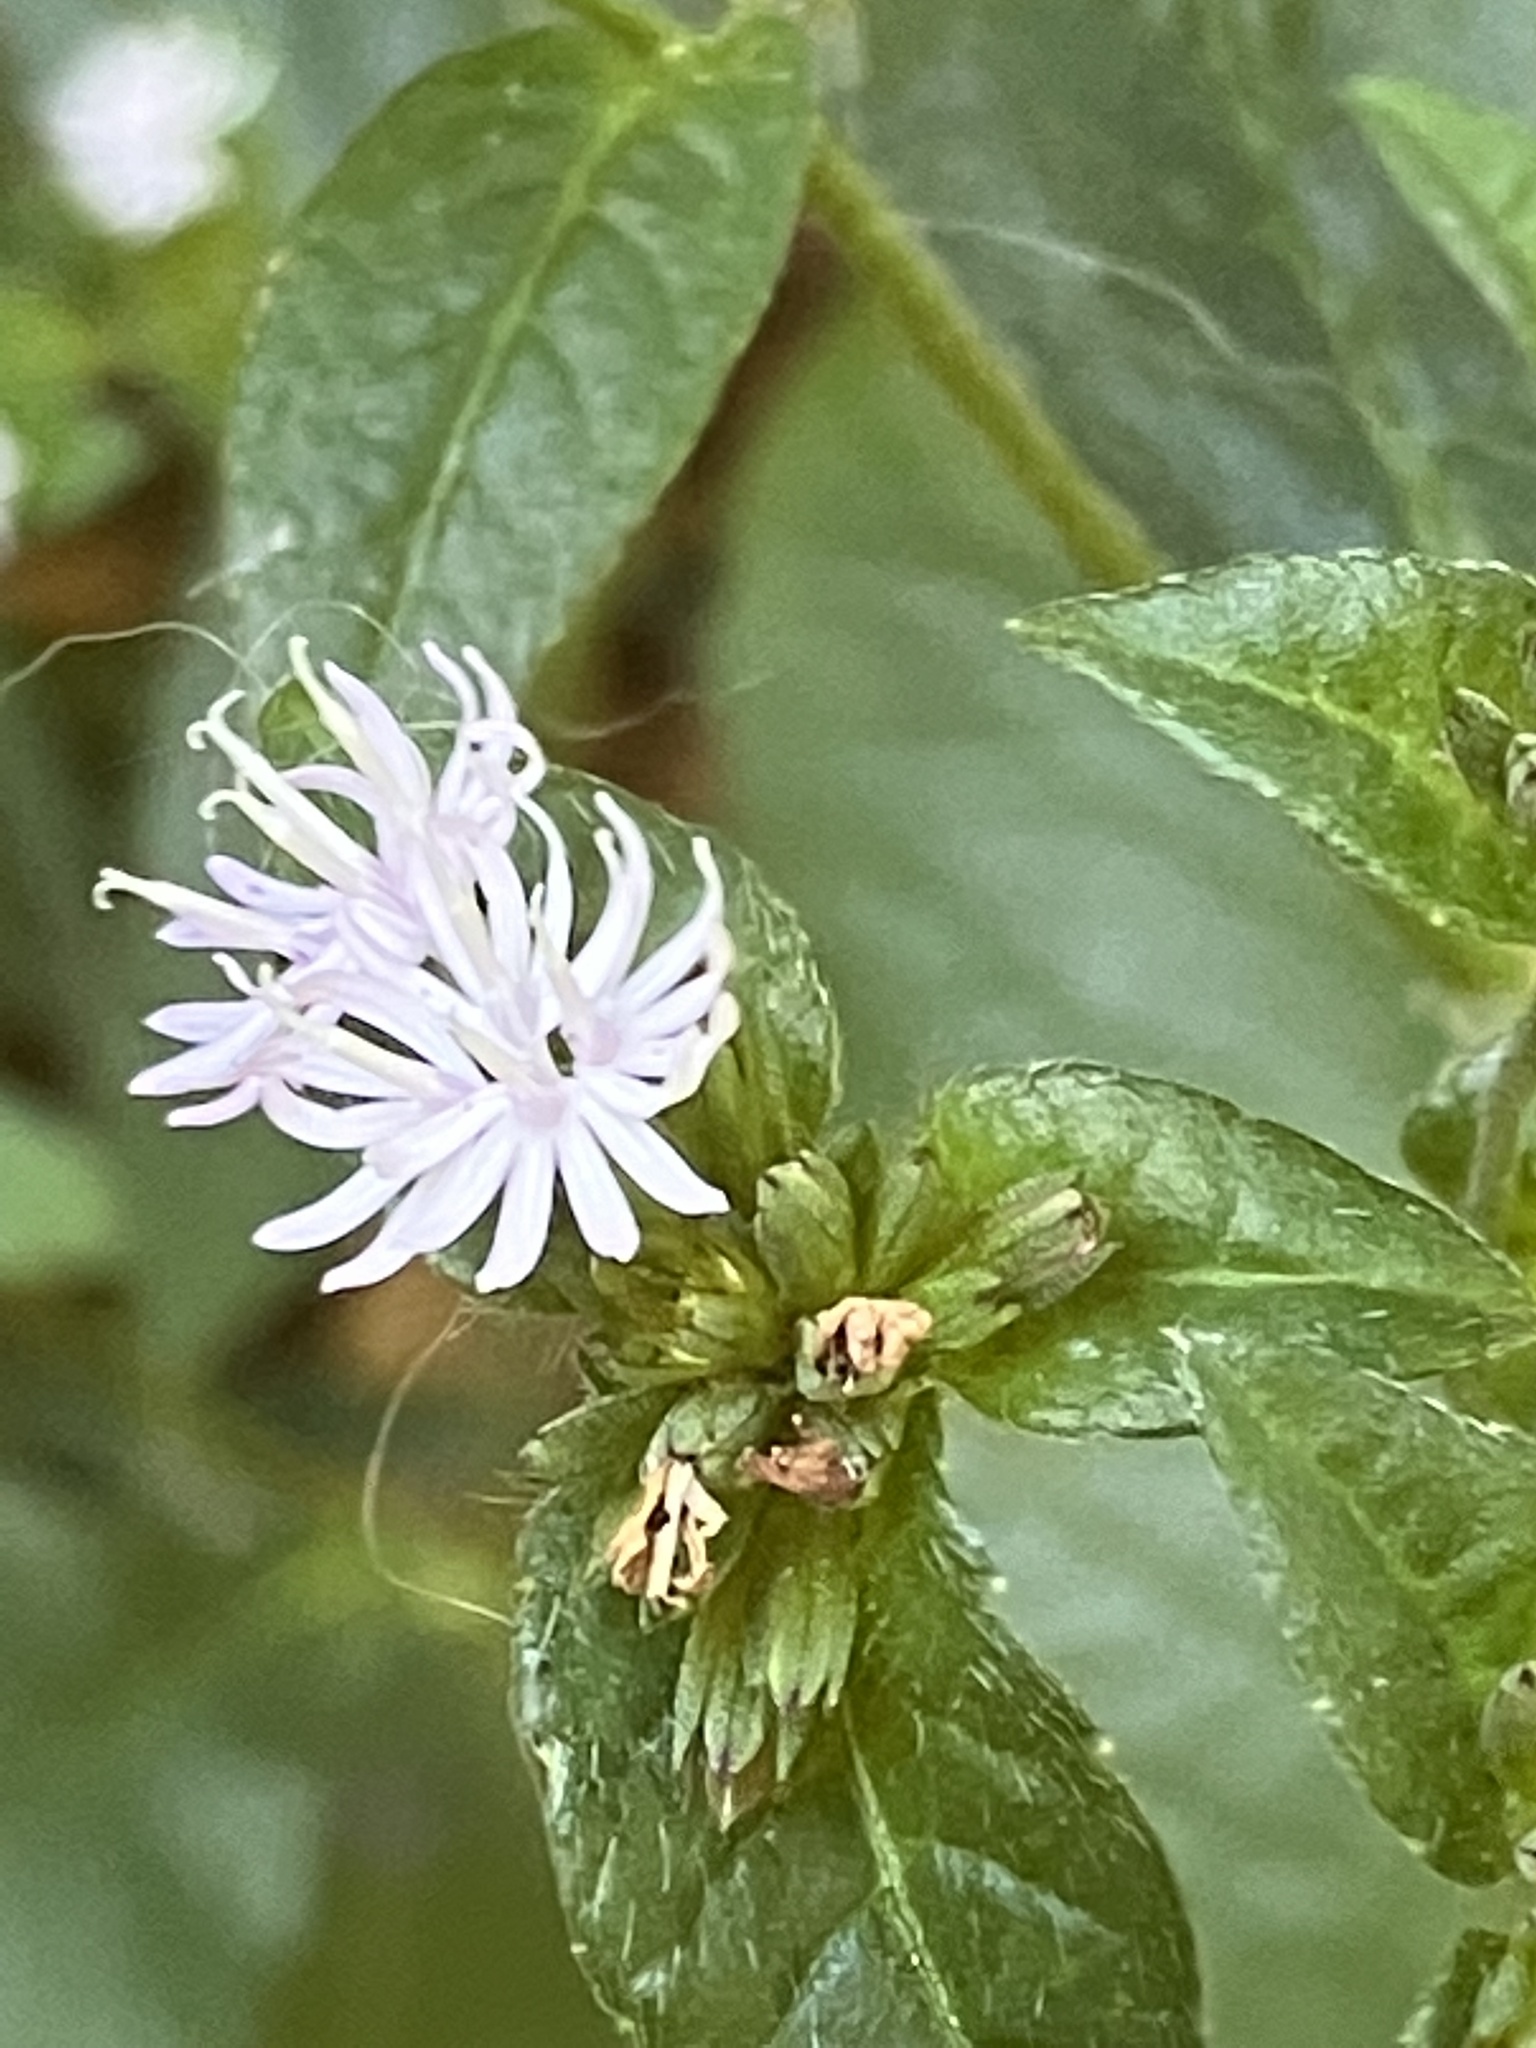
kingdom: Plantae
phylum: Tracheophyta
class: Magnoliopsida
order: Asterales
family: Asteraceae
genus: Elephantopus
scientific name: Elephantopus carolinianus
